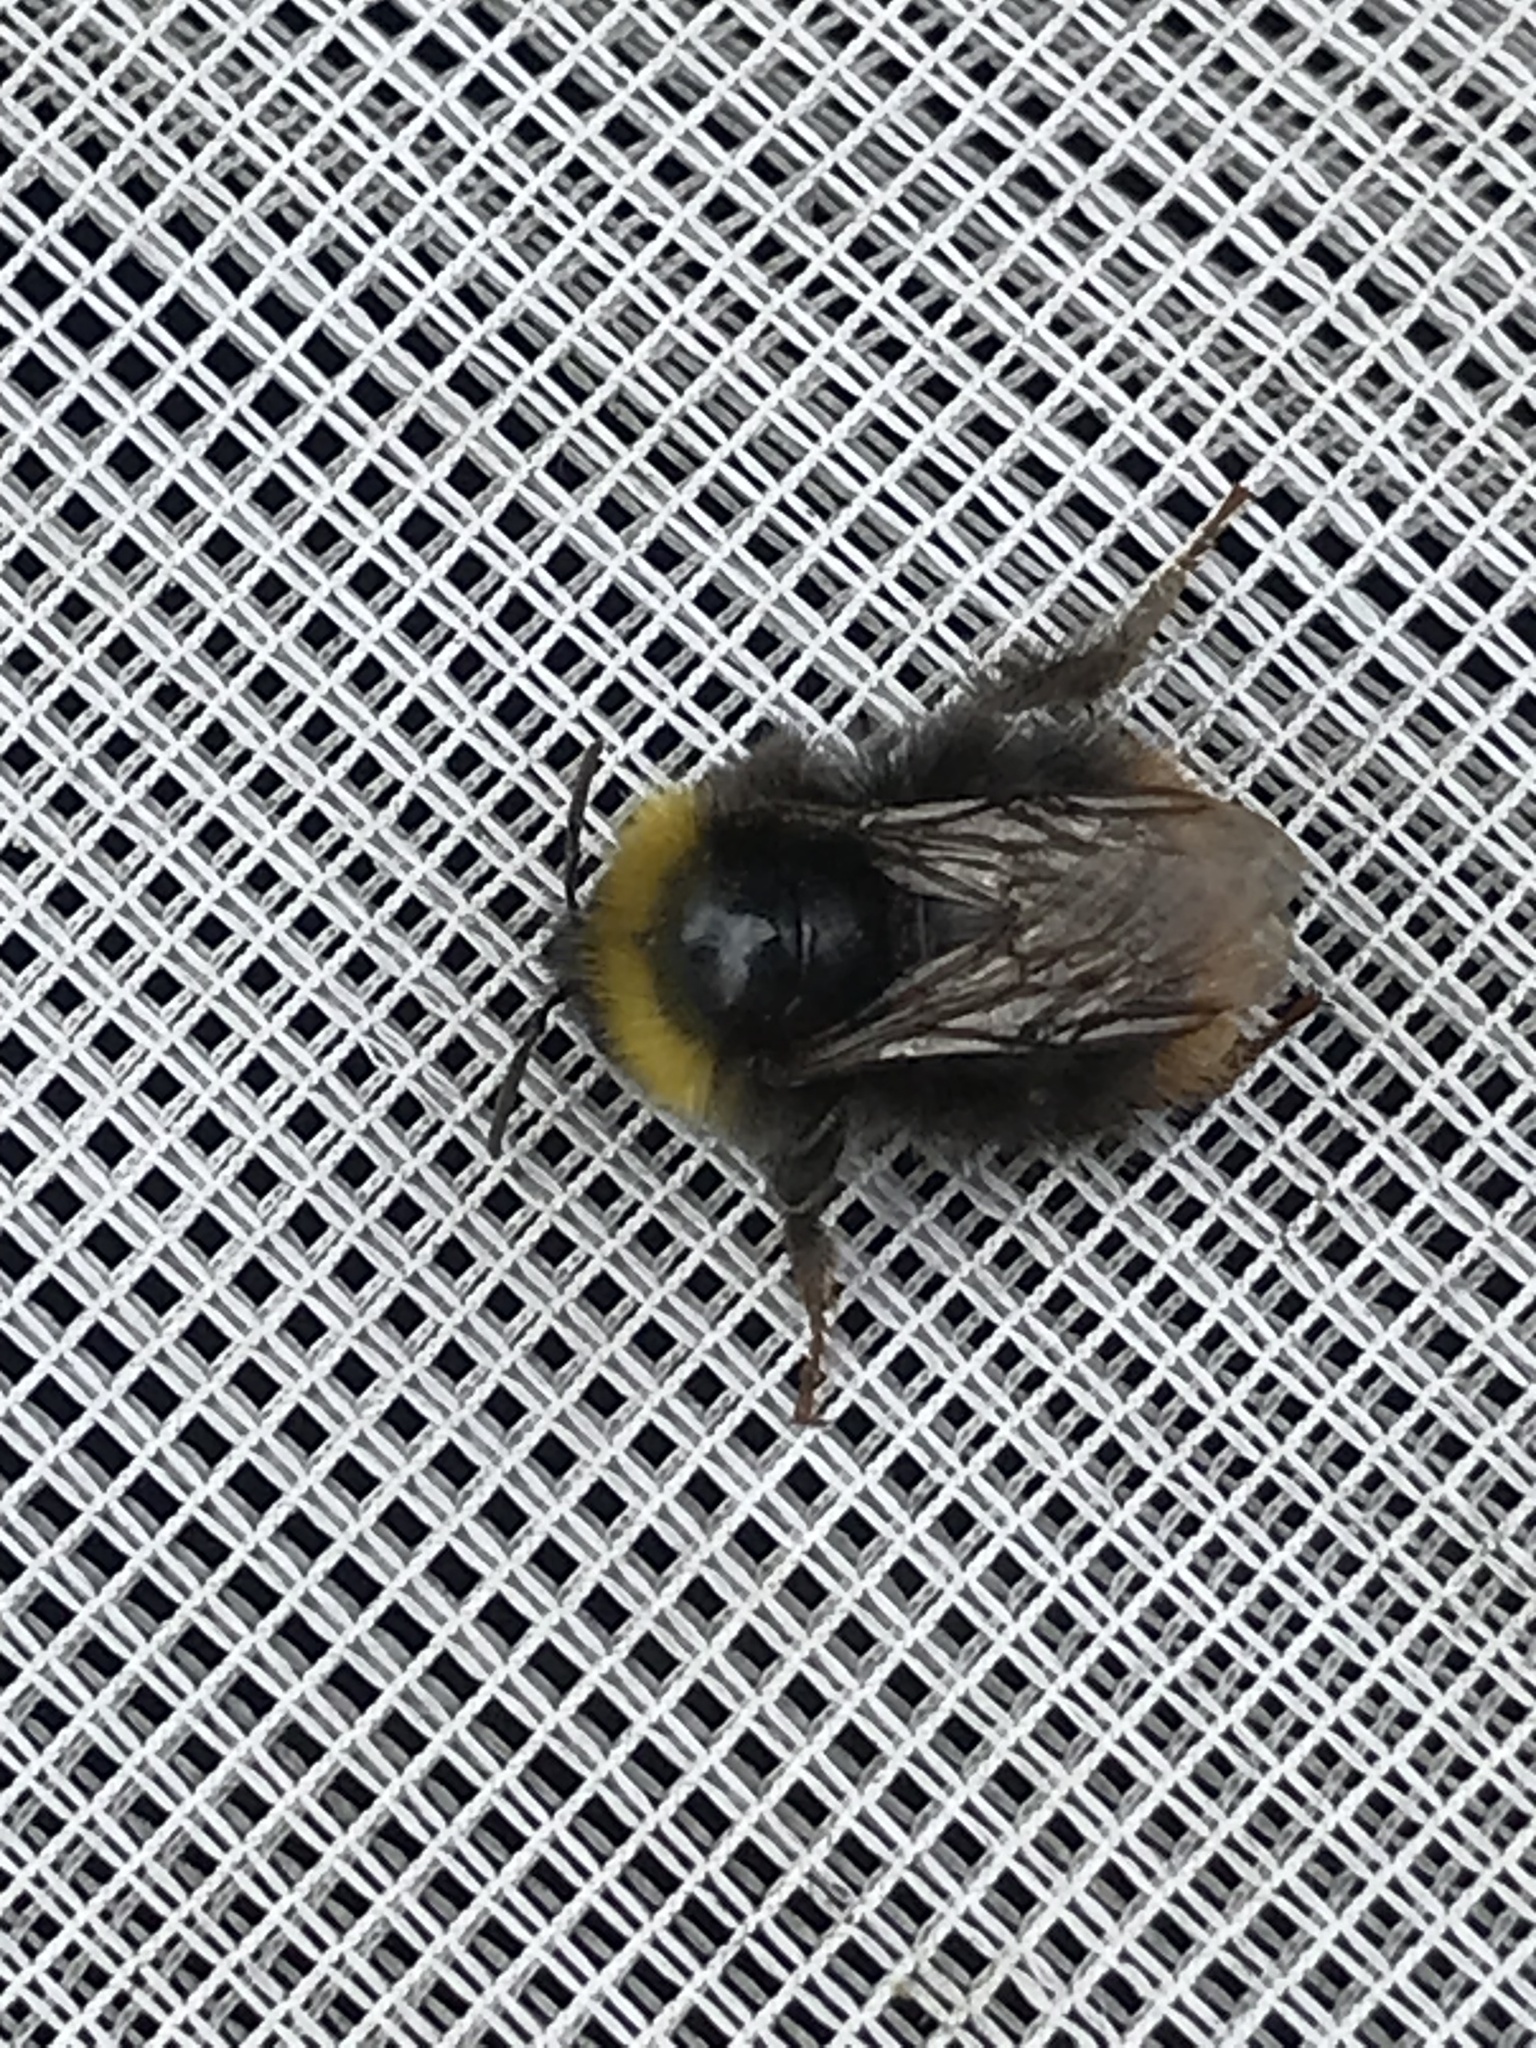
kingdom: Animalia
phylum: Arthropoda
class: Insecta
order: Hymenoptera
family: Apidae
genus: Bombus
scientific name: Bombus pratorum
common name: Early humble-bee
